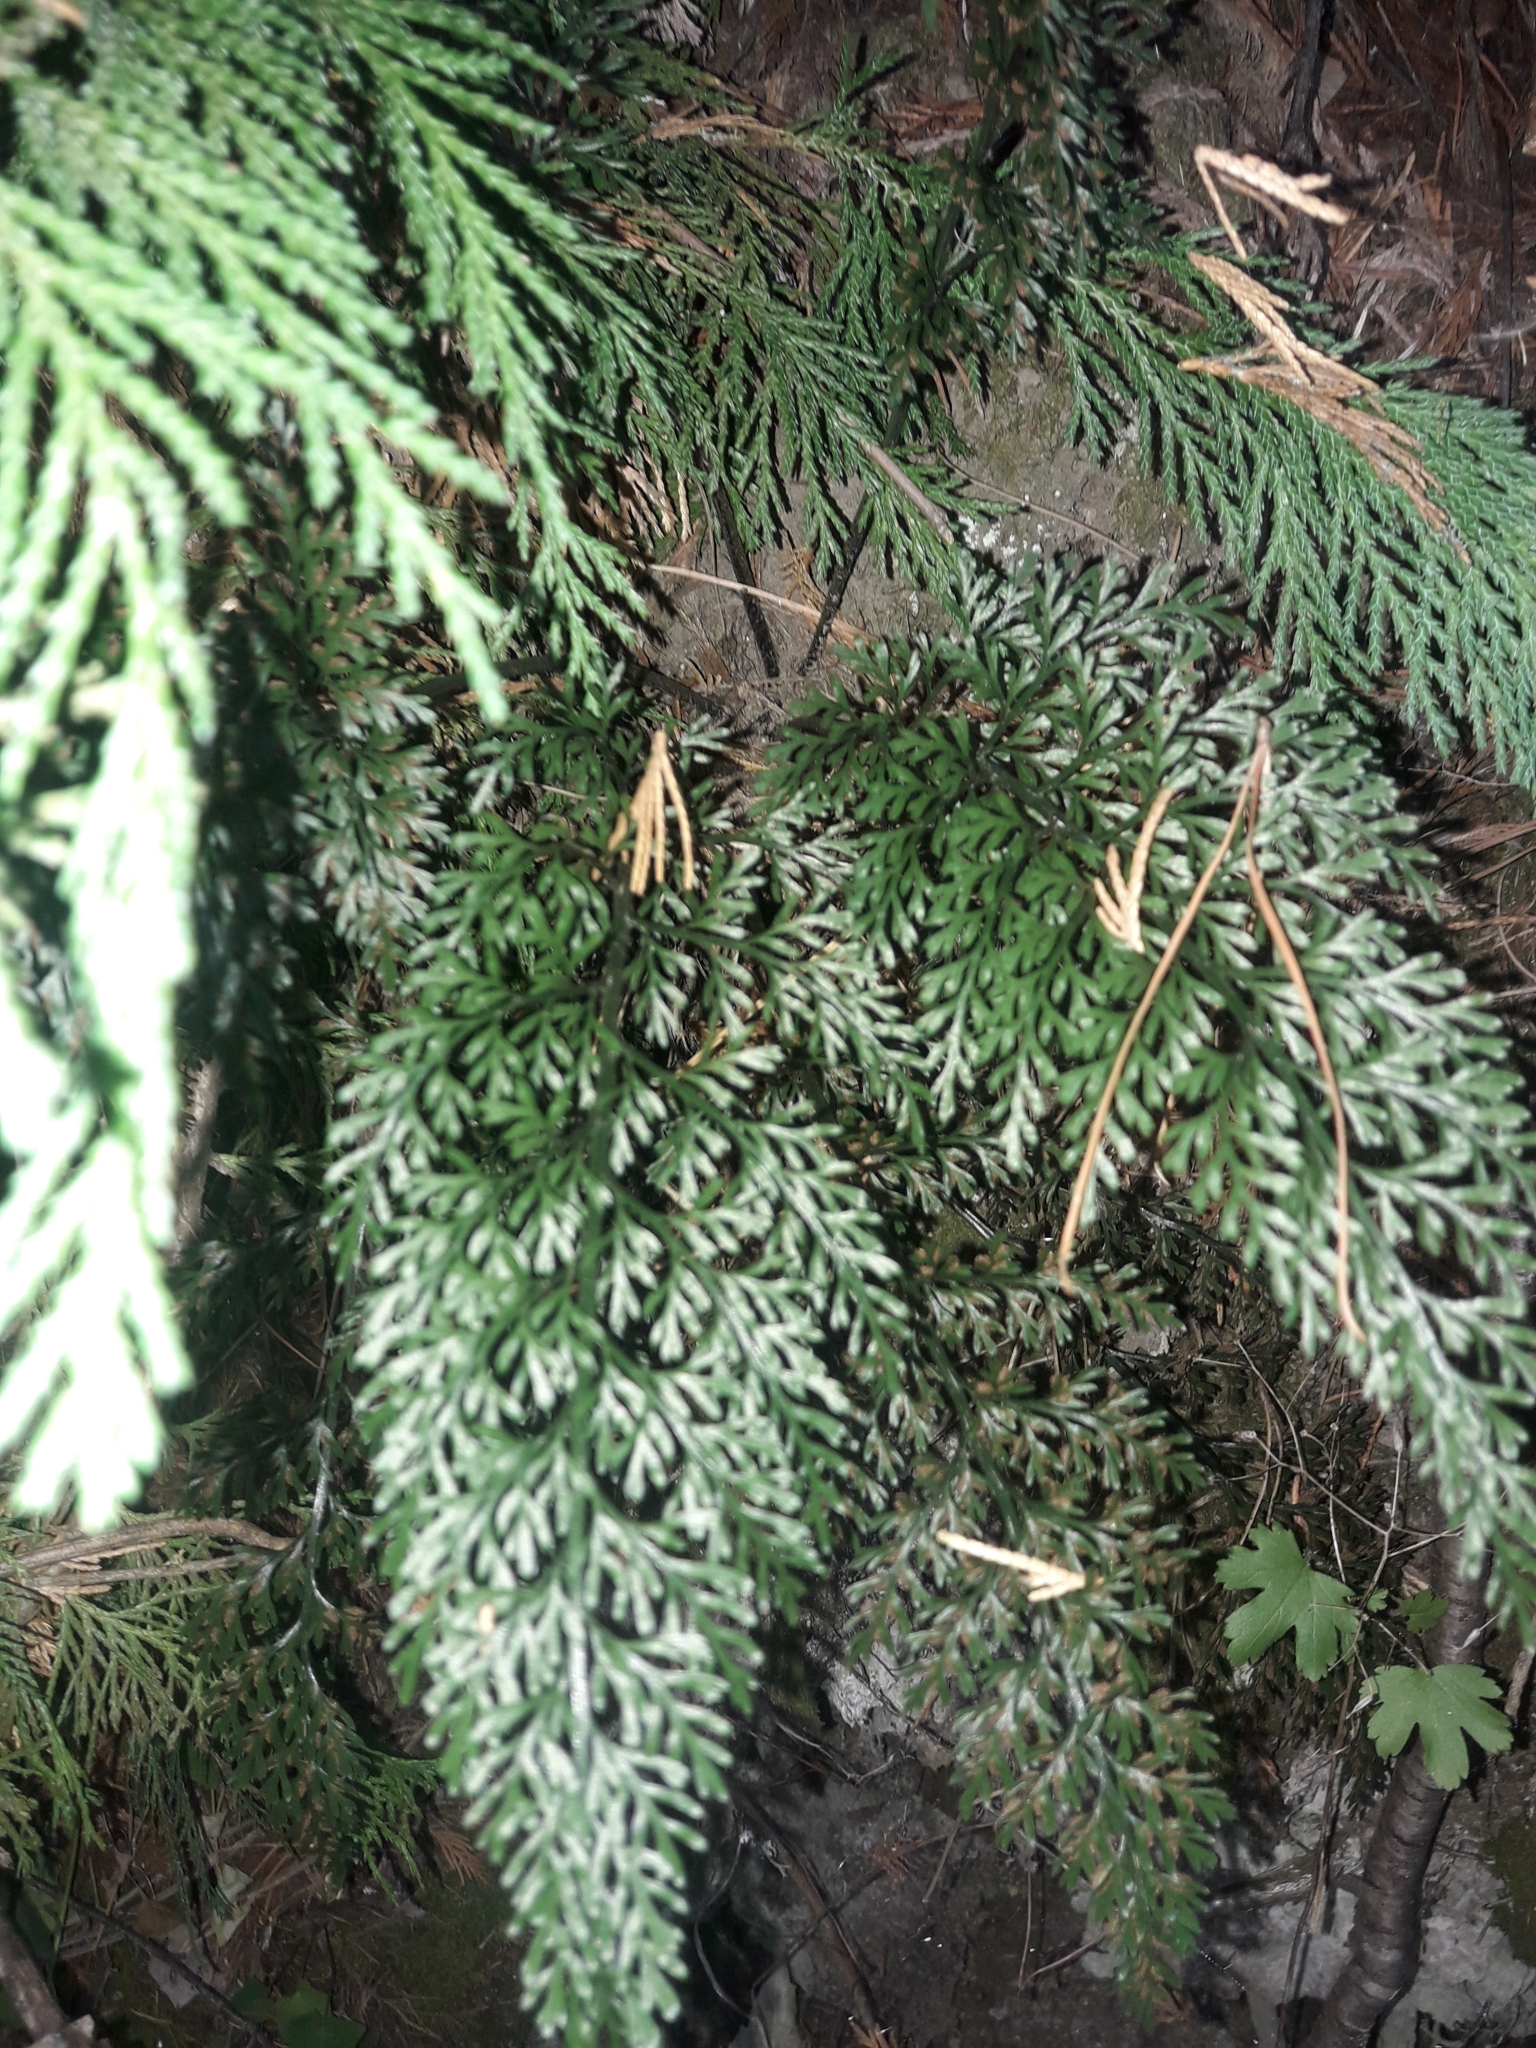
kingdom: Plantae
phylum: Tracheophyta
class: Polypodiopsida
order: Polypodiales
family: Aspleniaceae
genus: Asplenium
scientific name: Asplenium richardii
